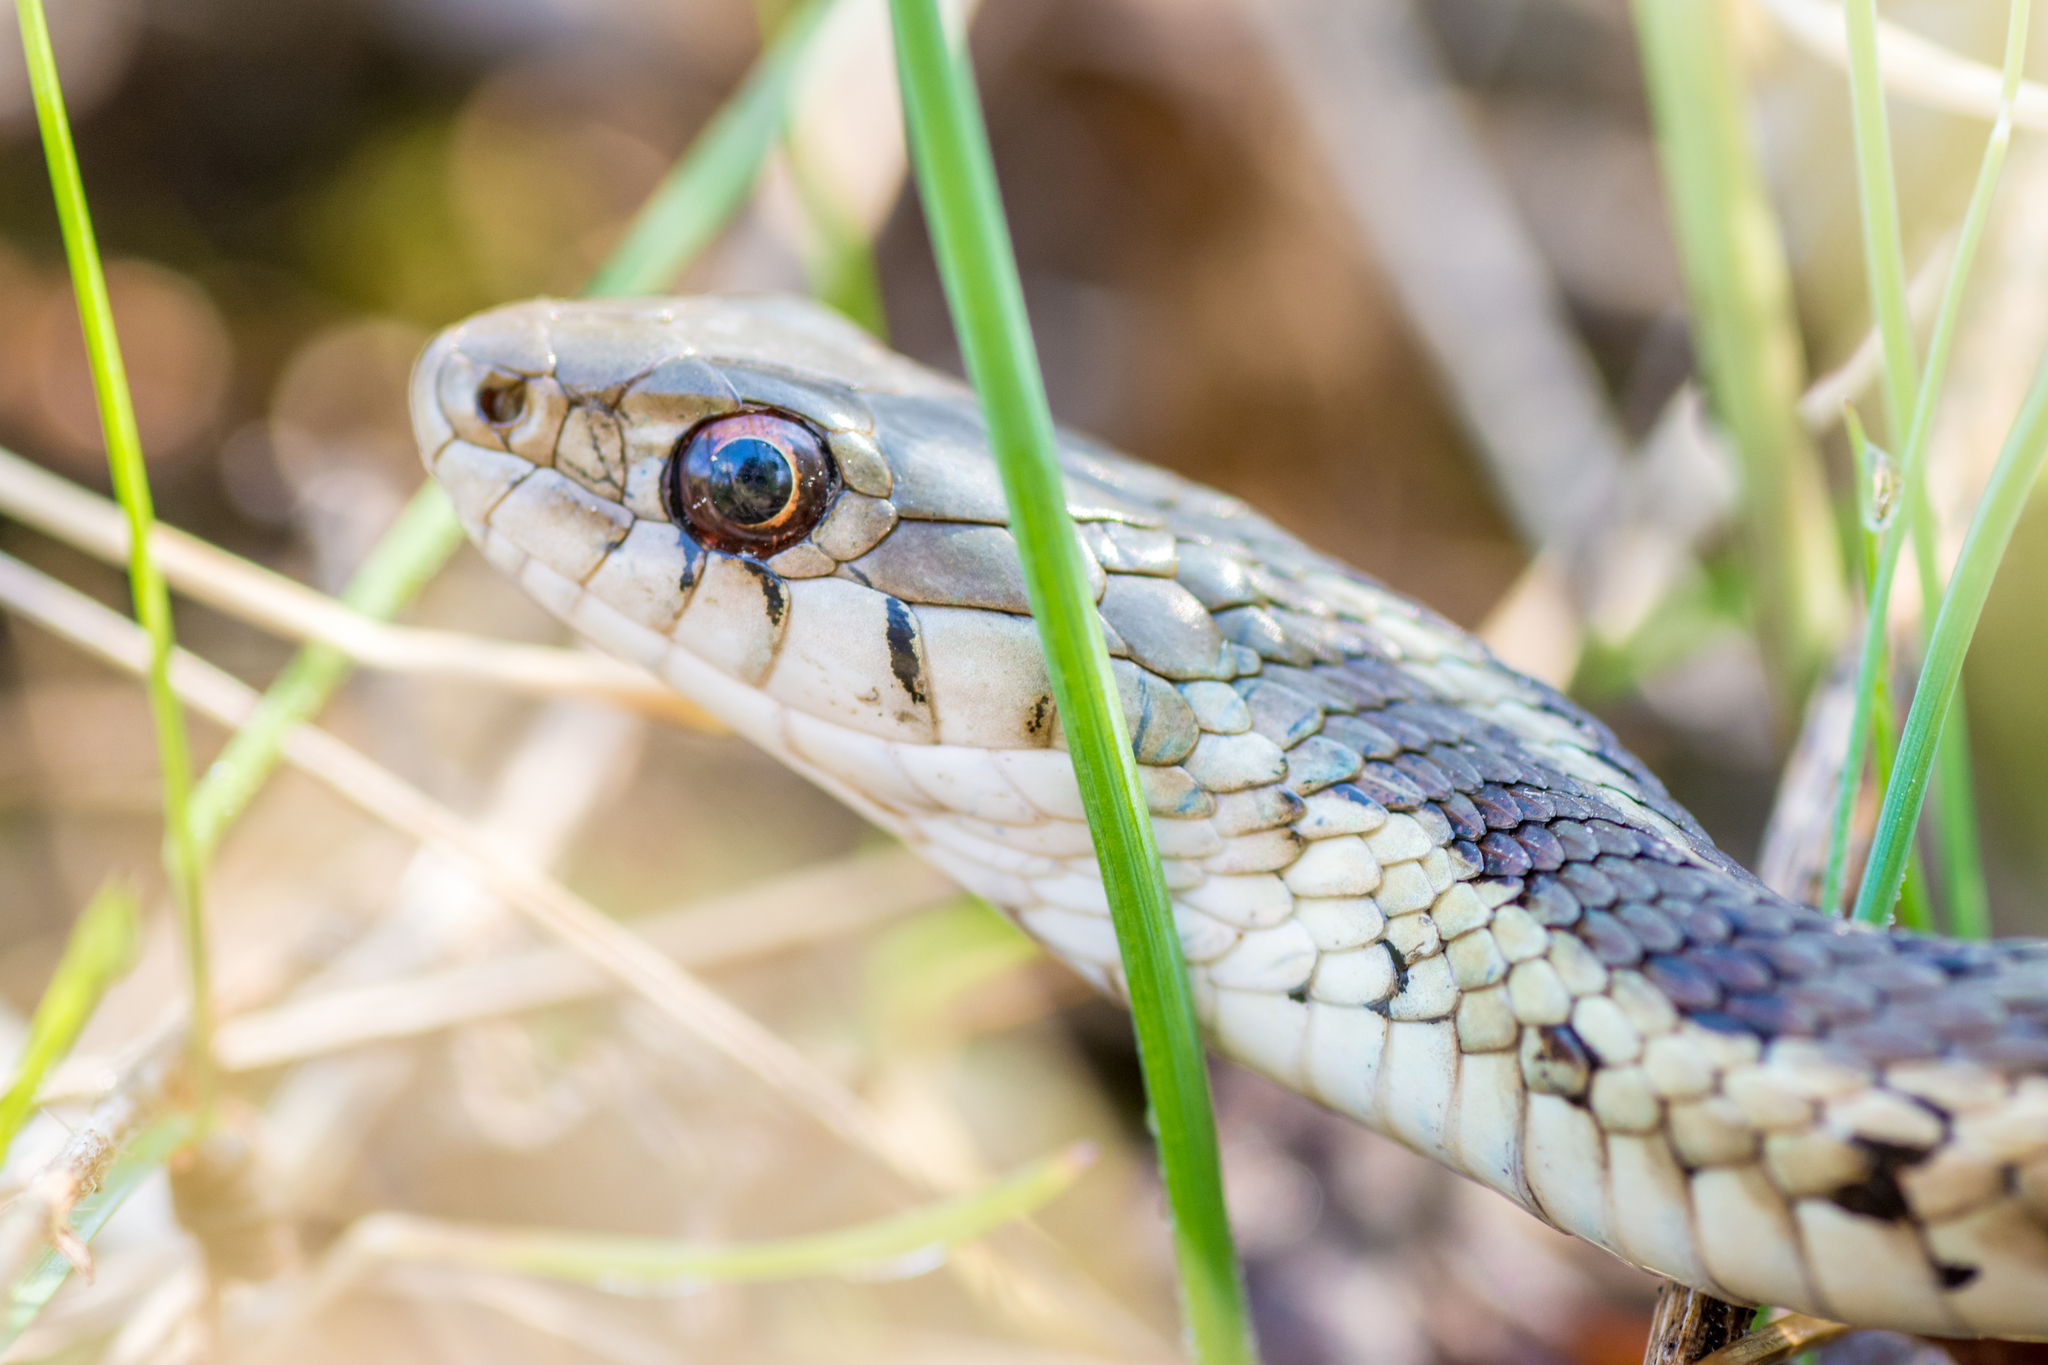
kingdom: Animalia
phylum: Chordata
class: Squamata
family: Colubridae
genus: Thamnophis
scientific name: Thamnophis sirtalis
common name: Common garter snake
